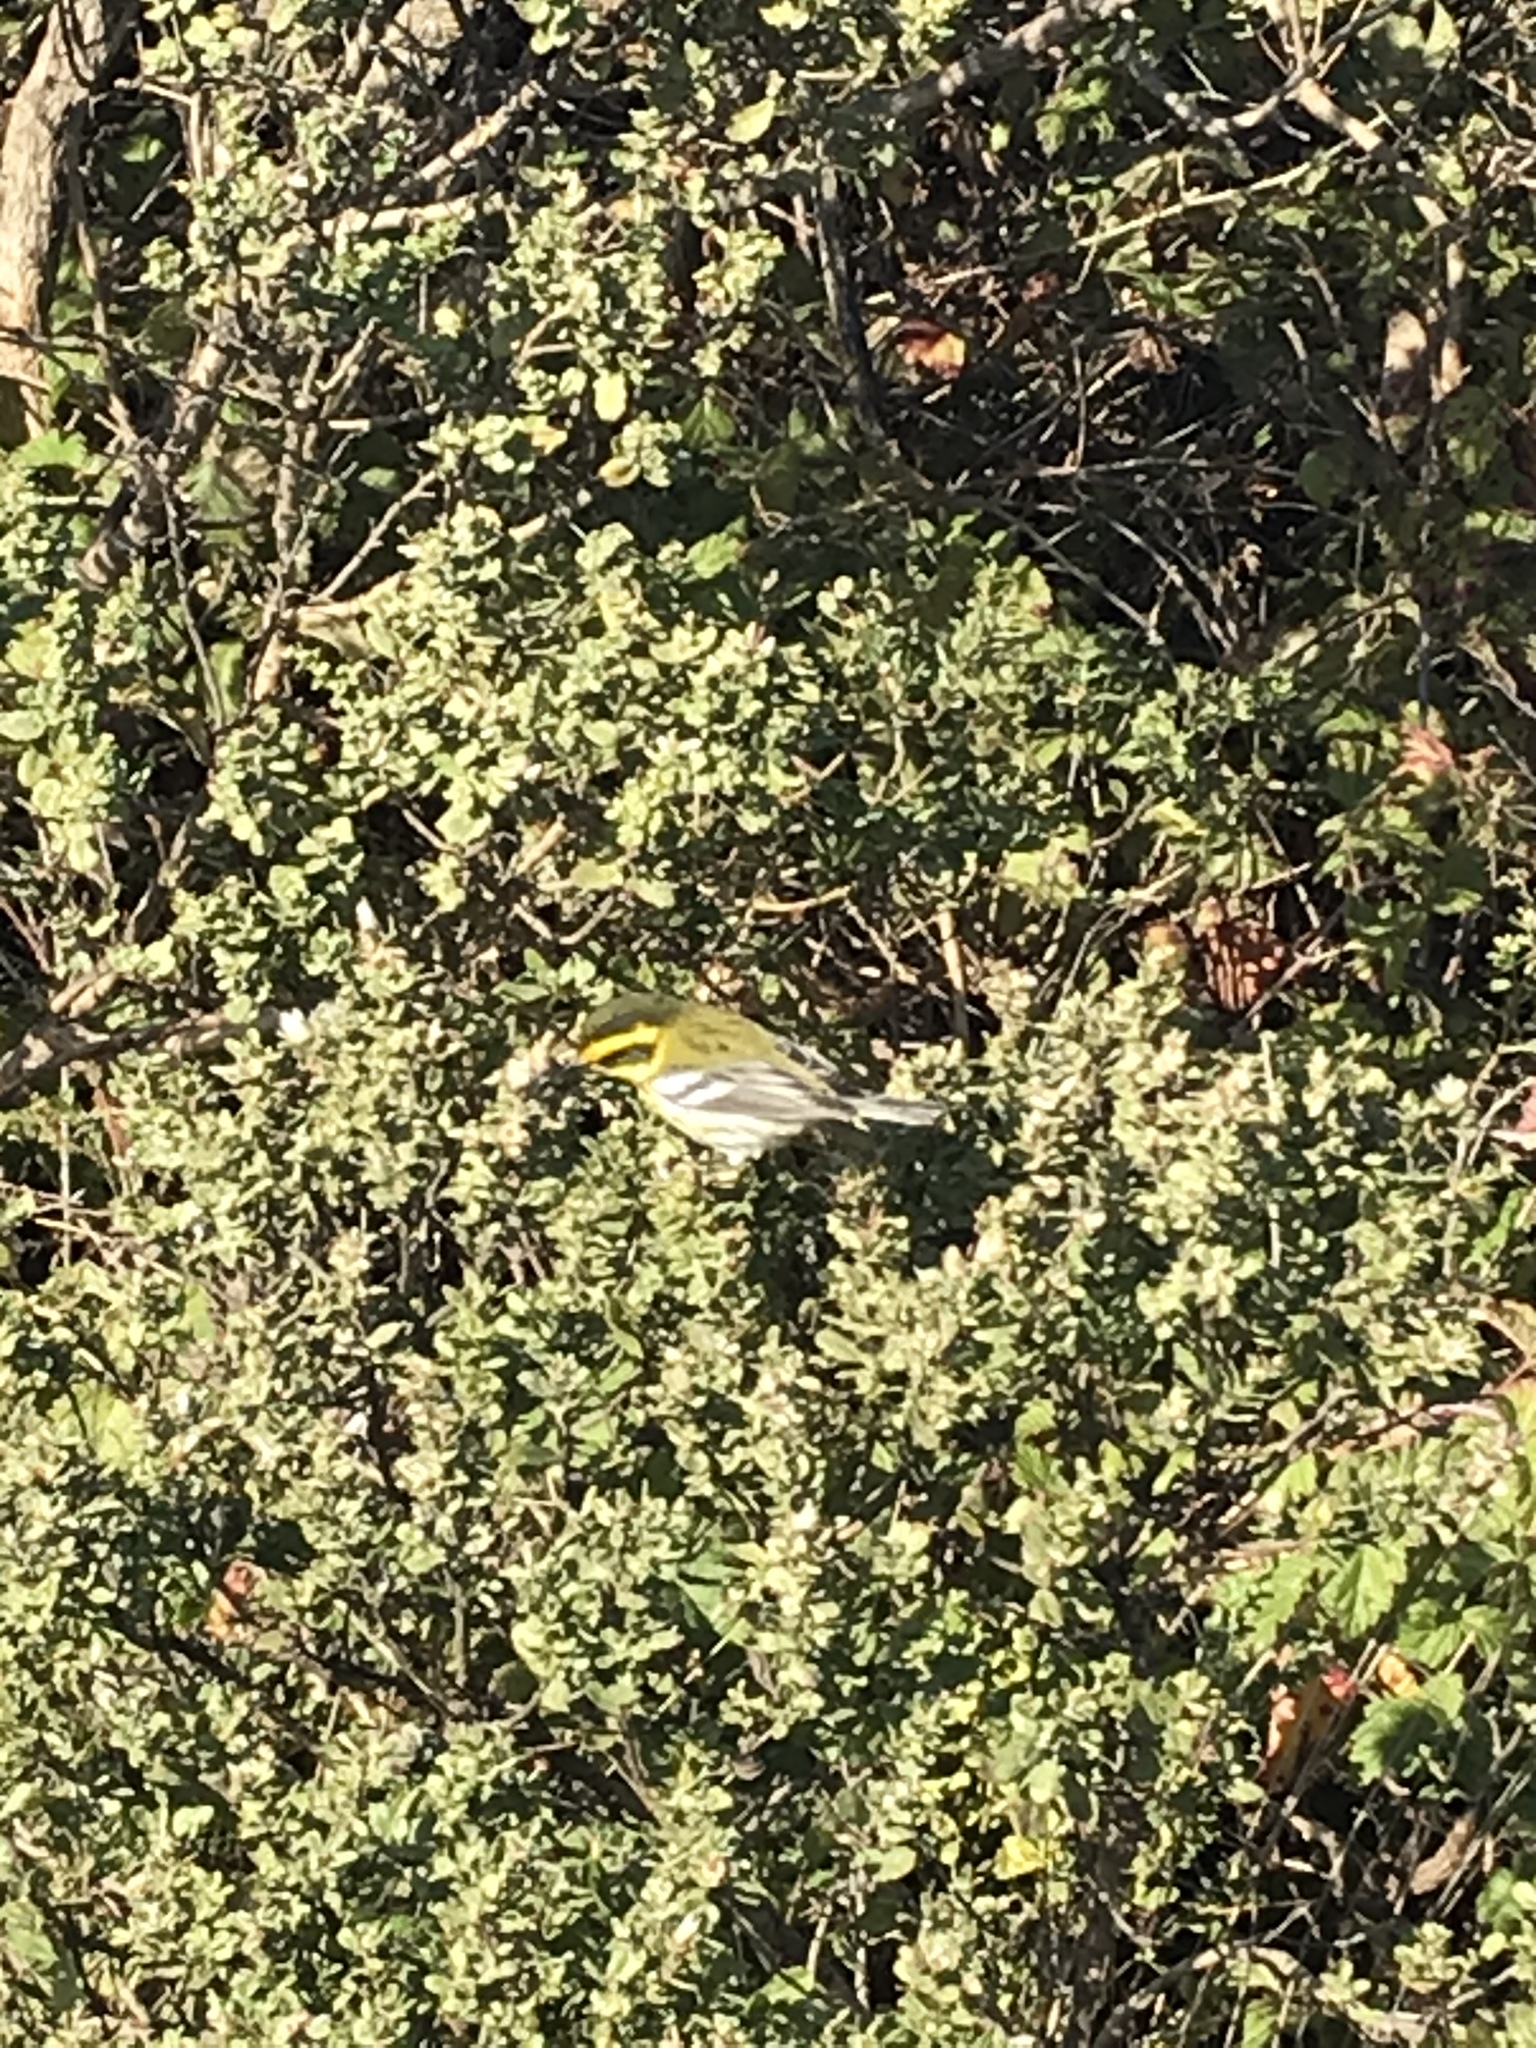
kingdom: Animalia
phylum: Chordata
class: Aves
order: Passeriformes
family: Parulidae
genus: Setophaga
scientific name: Setophaga townsendi
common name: Townsend's warbler
